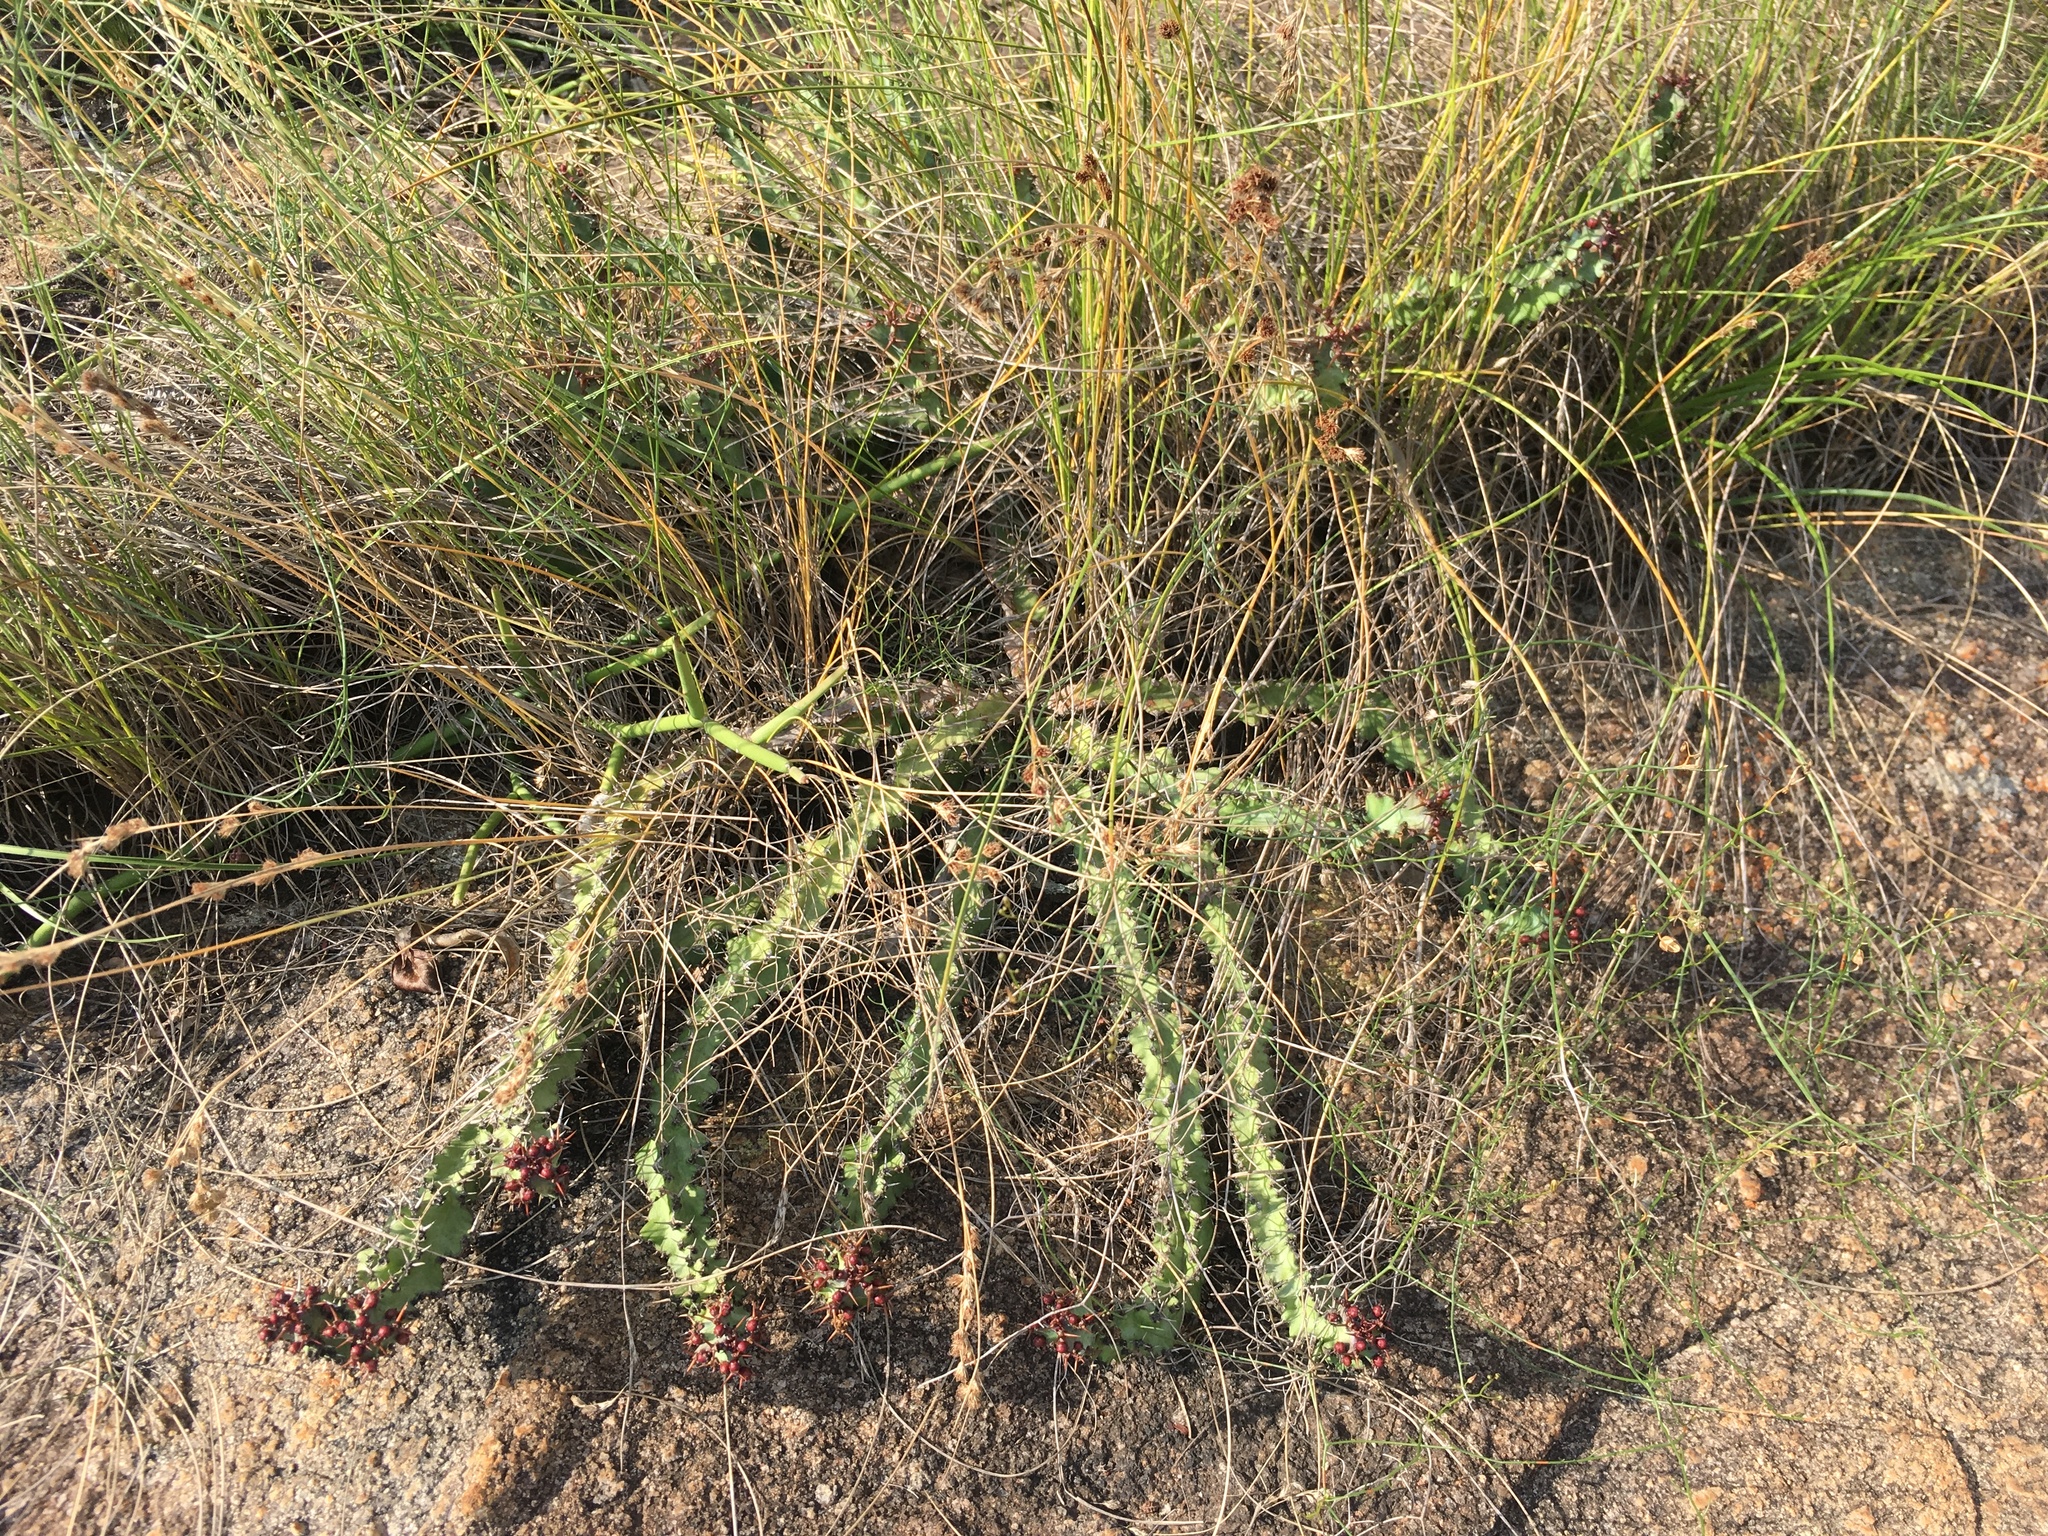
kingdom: Plantae
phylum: Tracheophyta
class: Magnoliopsida
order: Malpighiales
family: Euphorbiaceae
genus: Euphorbia
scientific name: Euphorbia vandermerwei
